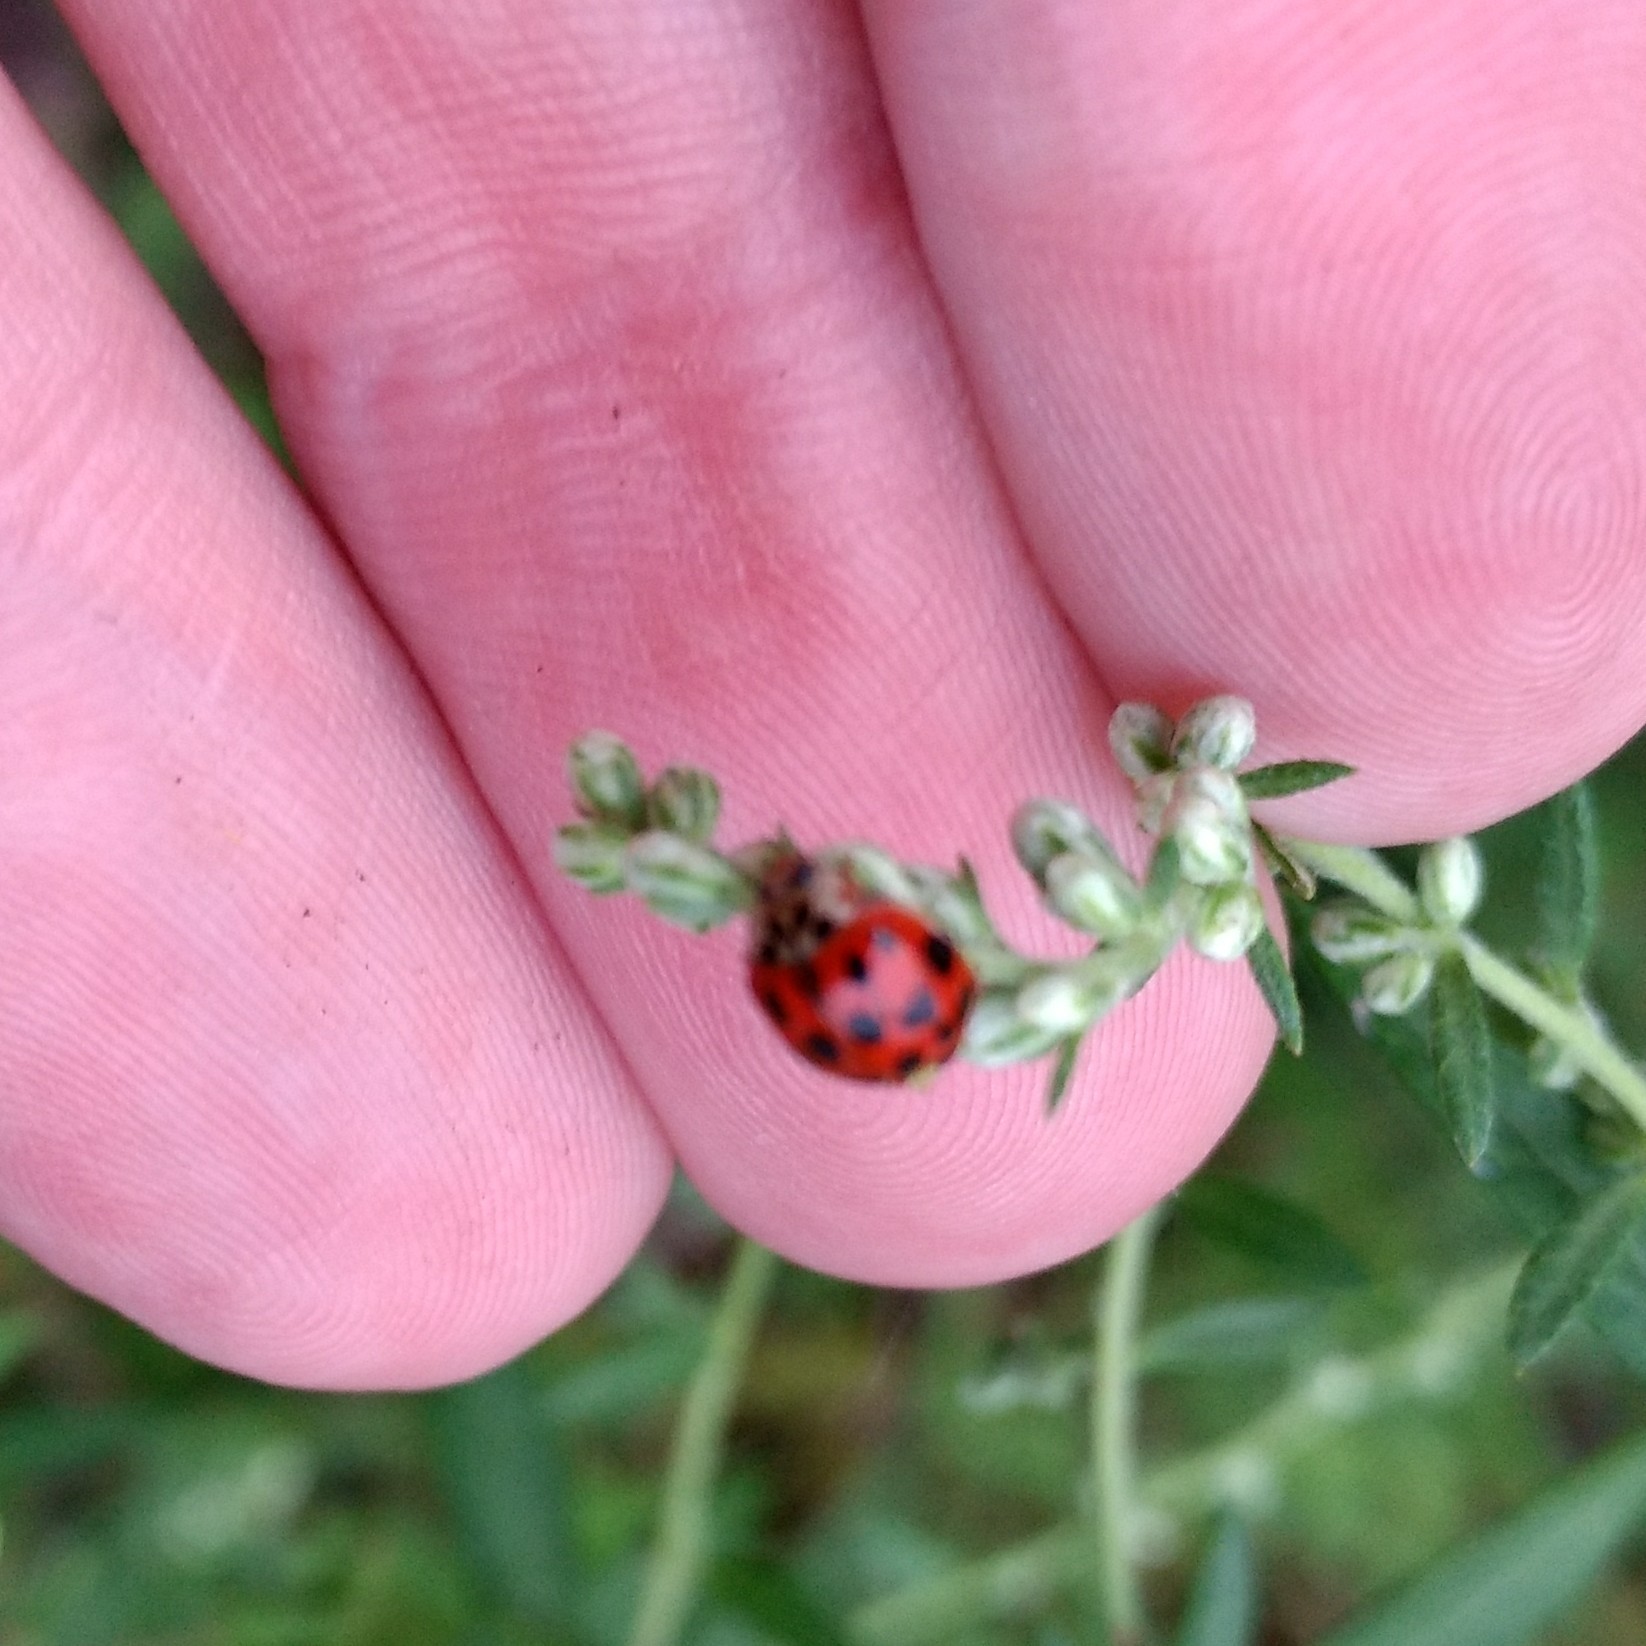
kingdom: Animalia
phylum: Arthropoda
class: Insecta
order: Coleoptera
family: Coccinellidae
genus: Harmonia
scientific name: Harmonia axyridis
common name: Harlequin ladybird
